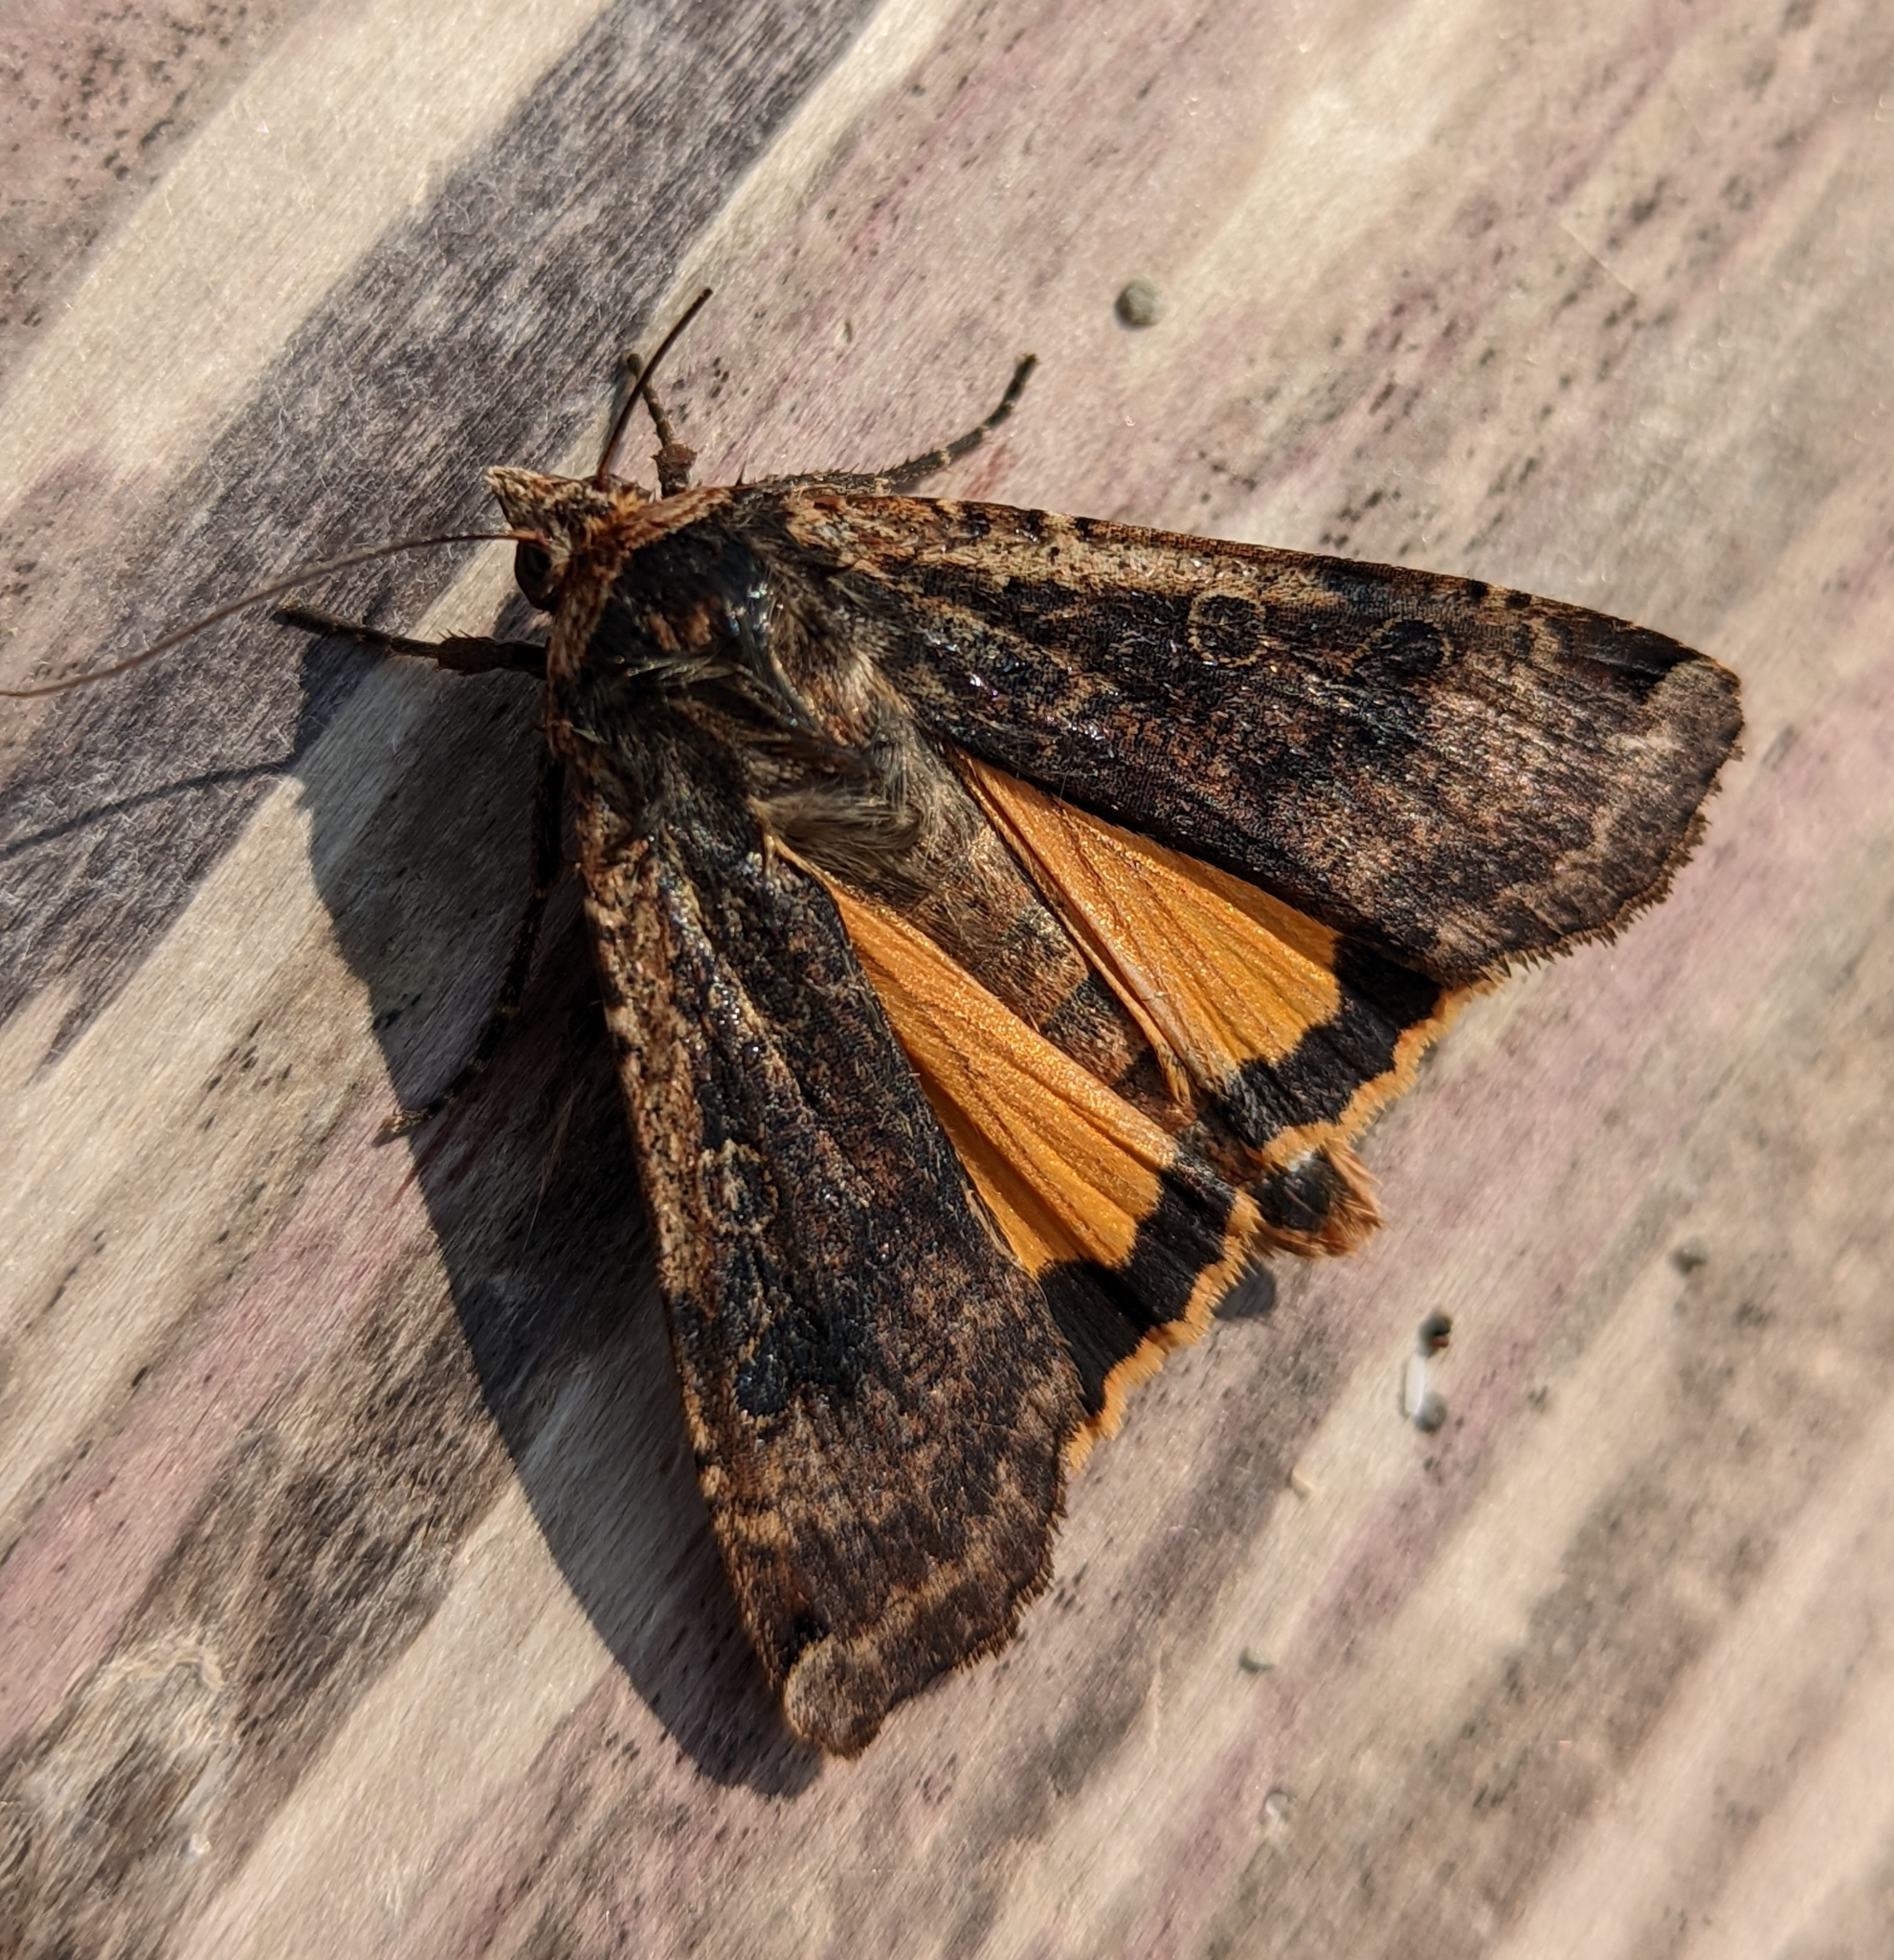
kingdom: Animalia
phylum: Arthropoda
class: Insecta
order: Lepidoptera
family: Noctuidae
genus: Noctua
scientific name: Noctua pronuba
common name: Large yellow underwing
